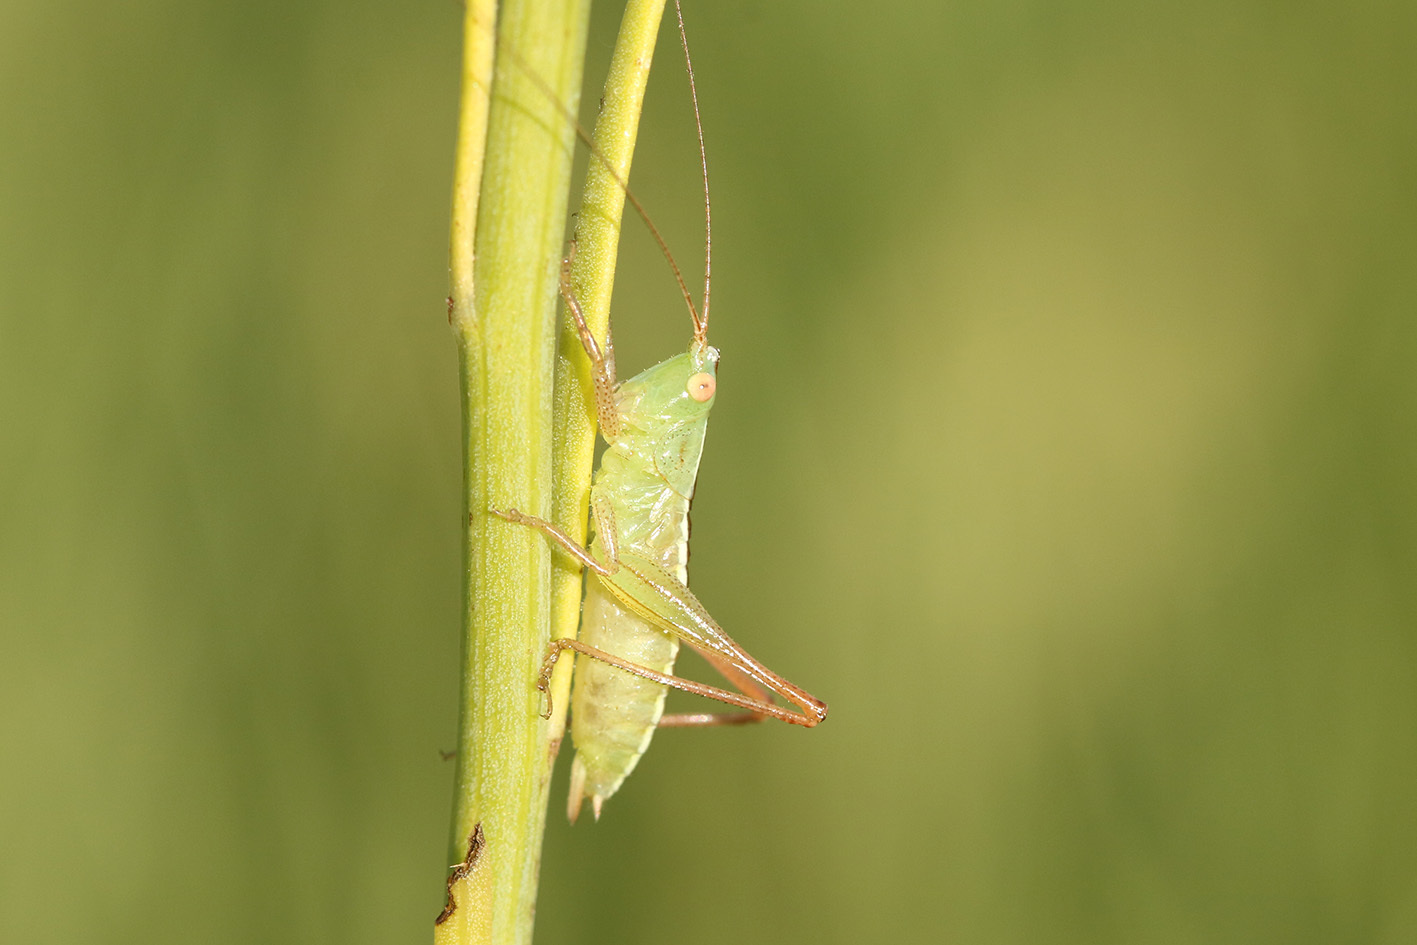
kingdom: Animalia
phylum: Arthropoda
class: Insecta
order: Orthoptera
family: Tettigoniidae
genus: Conocephalus
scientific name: Conocephalus longipes
